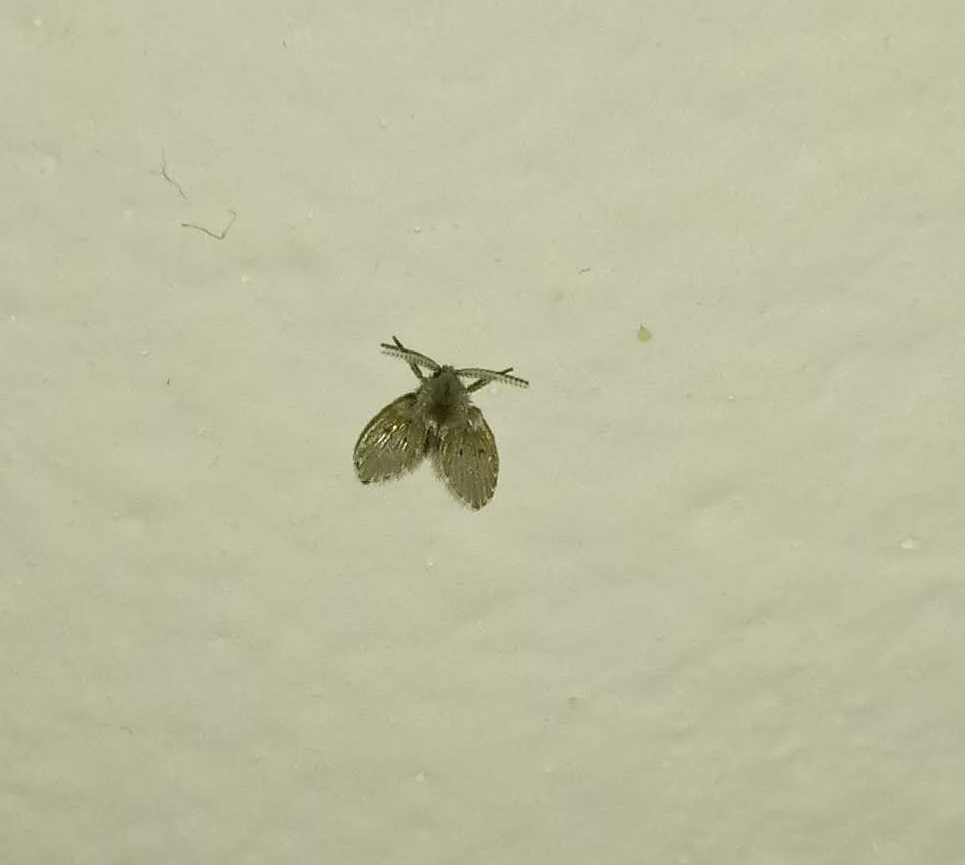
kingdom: Animalia
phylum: Arthropoda
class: Insecta
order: Diptera
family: Psychodidae
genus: Clogmia
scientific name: Clogmia albipunctatus
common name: White-spotted moth fly
